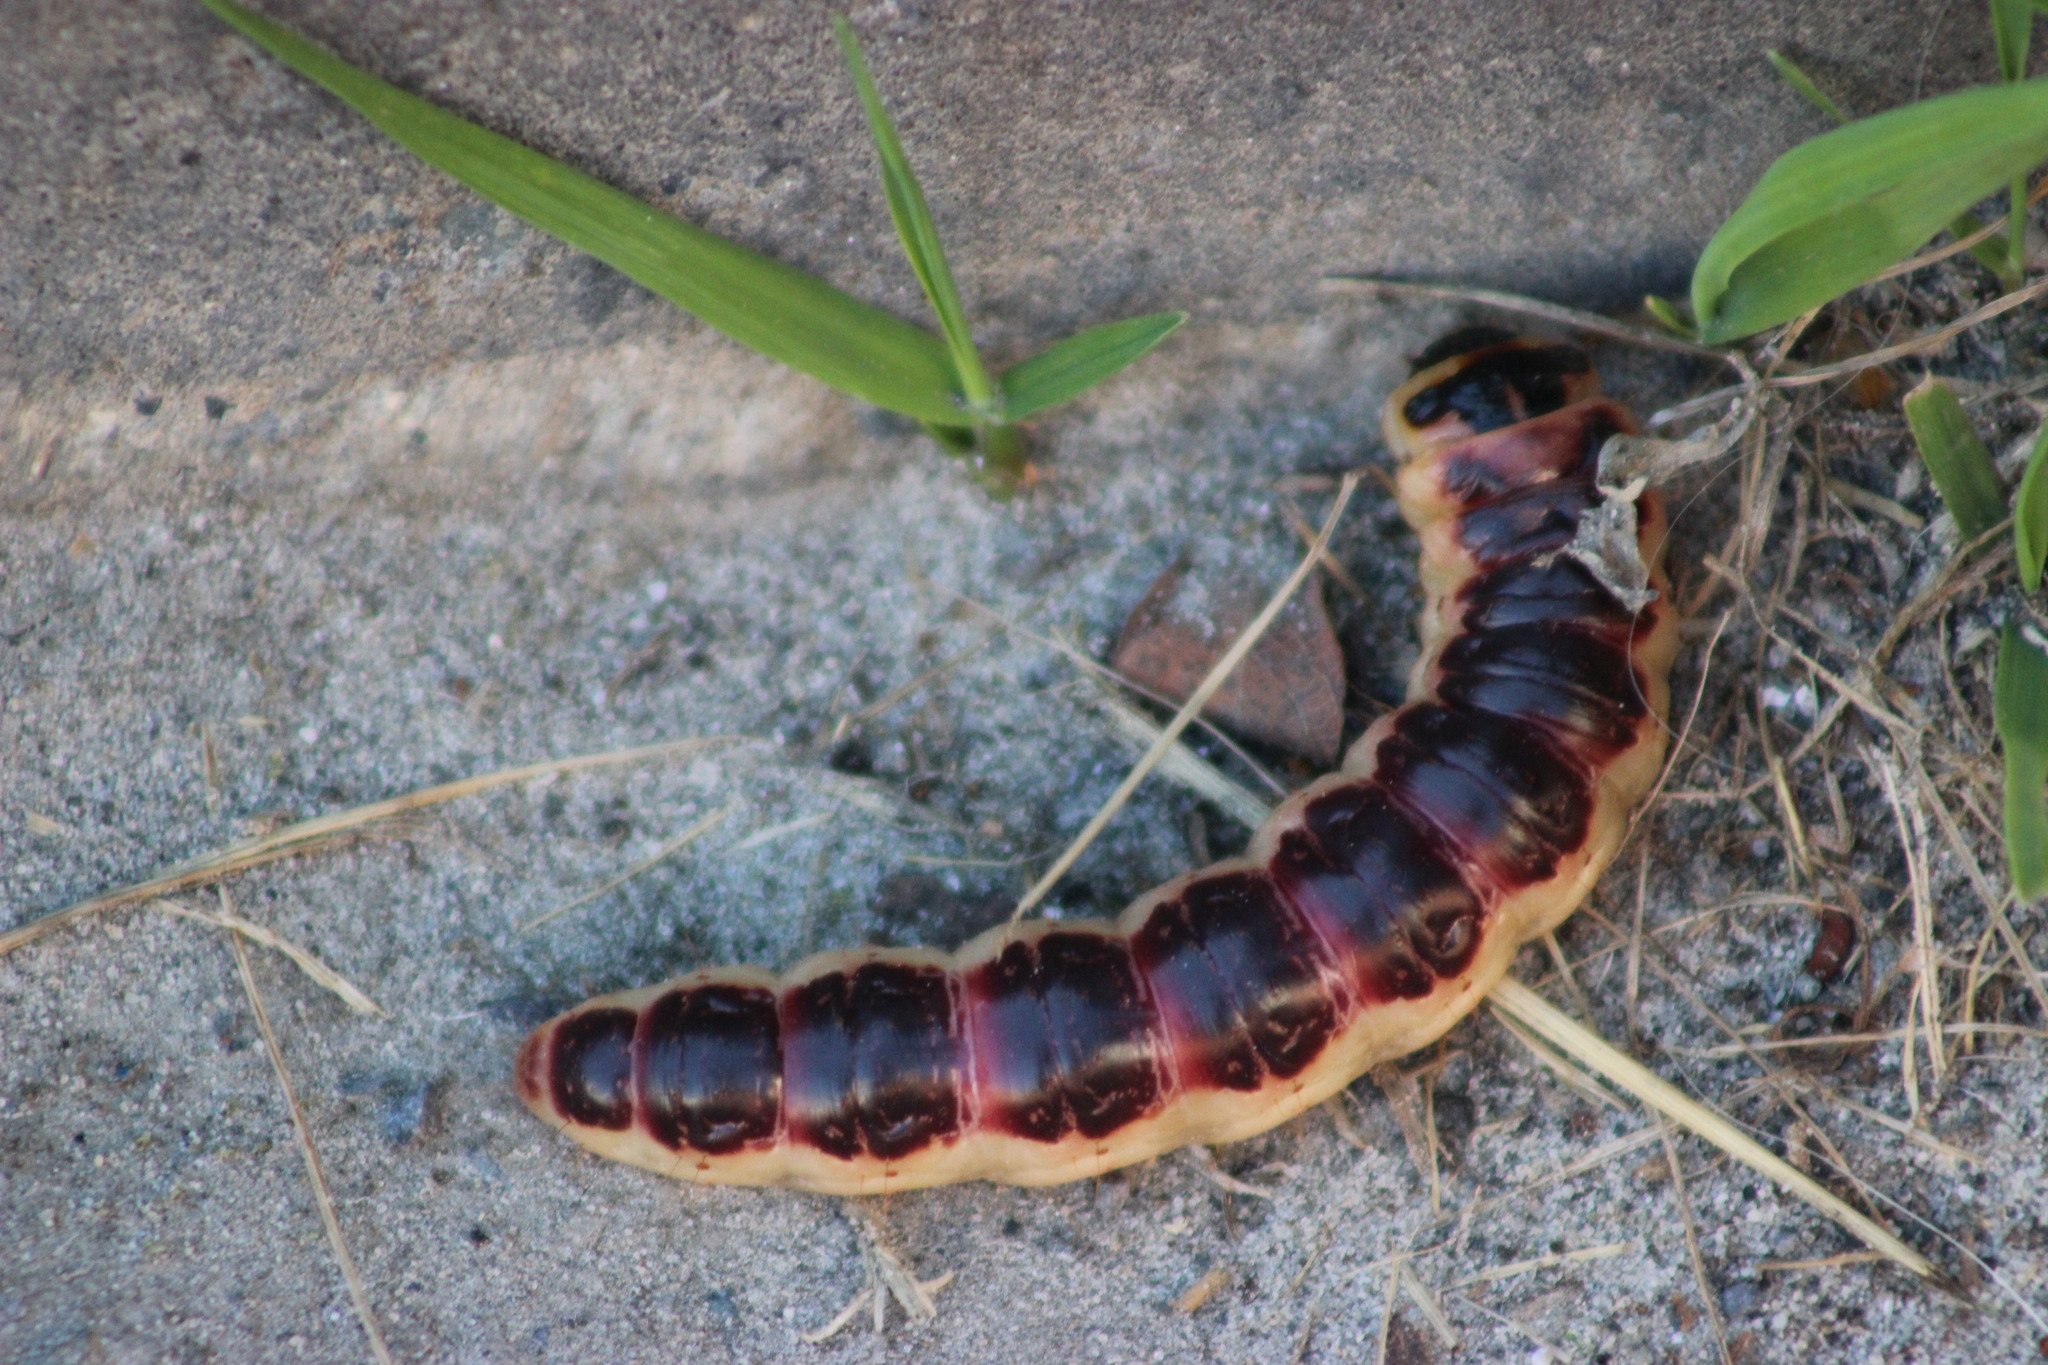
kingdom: Animalia
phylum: Arthropoda
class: Insecta
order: Lepidoptera
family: Cossidae
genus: Cossus
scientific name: Cossus cossus
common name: Goat moth
